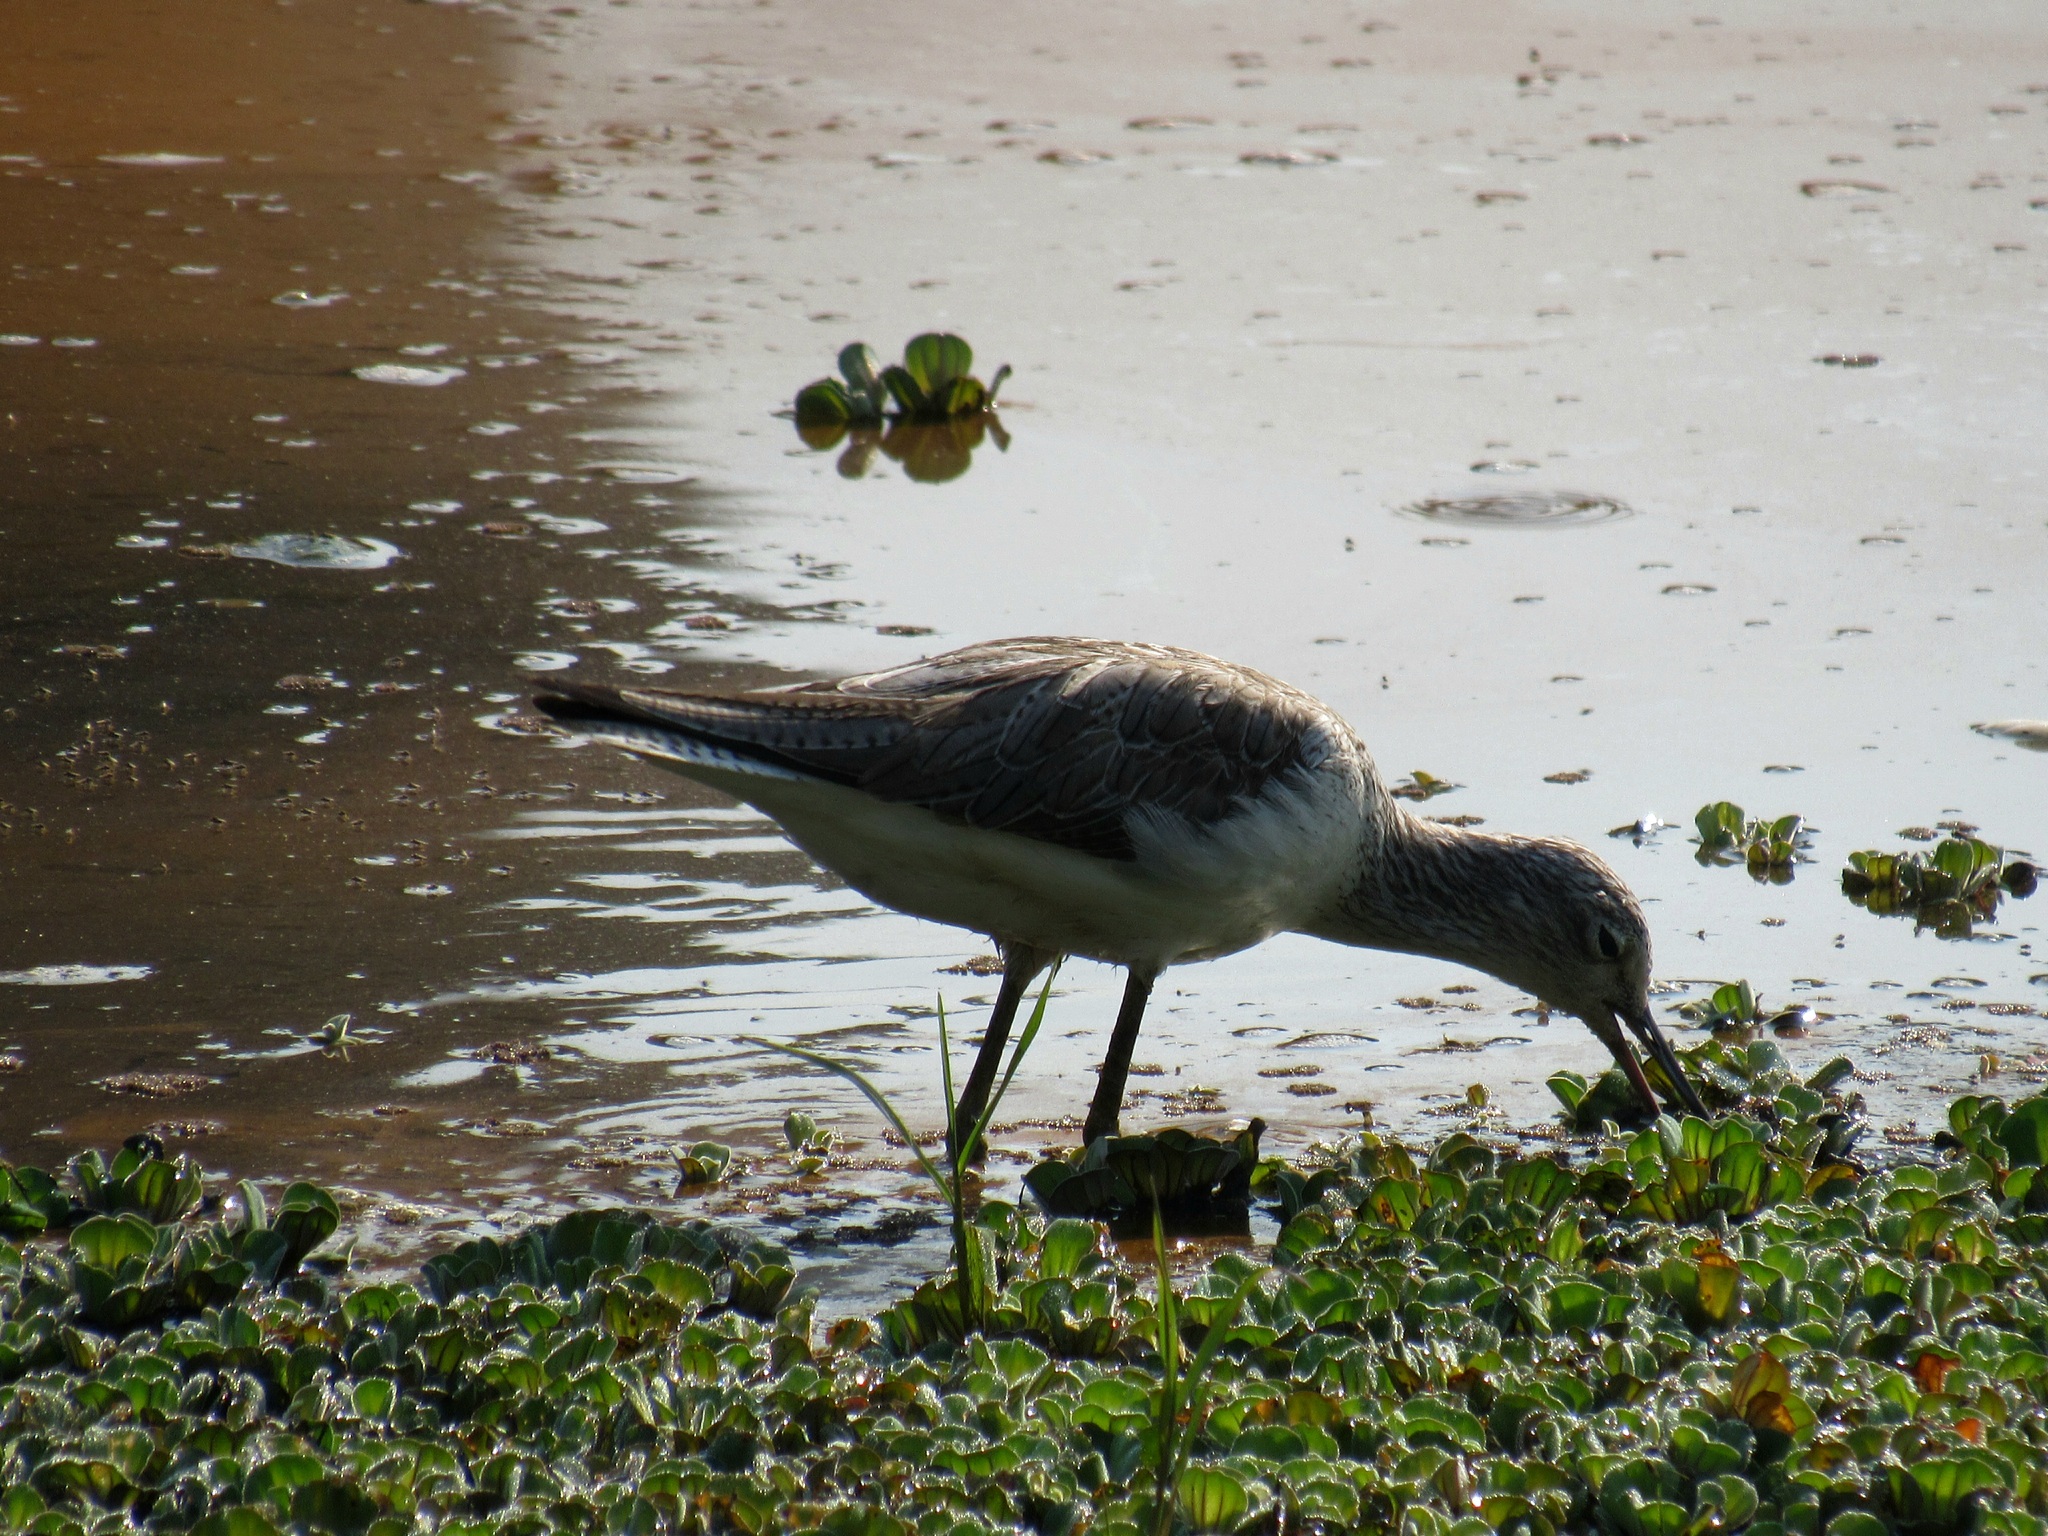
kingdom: Animalia
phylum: Chordata
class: Aves
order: Charadriiformes
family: Scolopacidae
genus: Tringa
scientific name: Tringa nebularia
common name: Common greenshank
